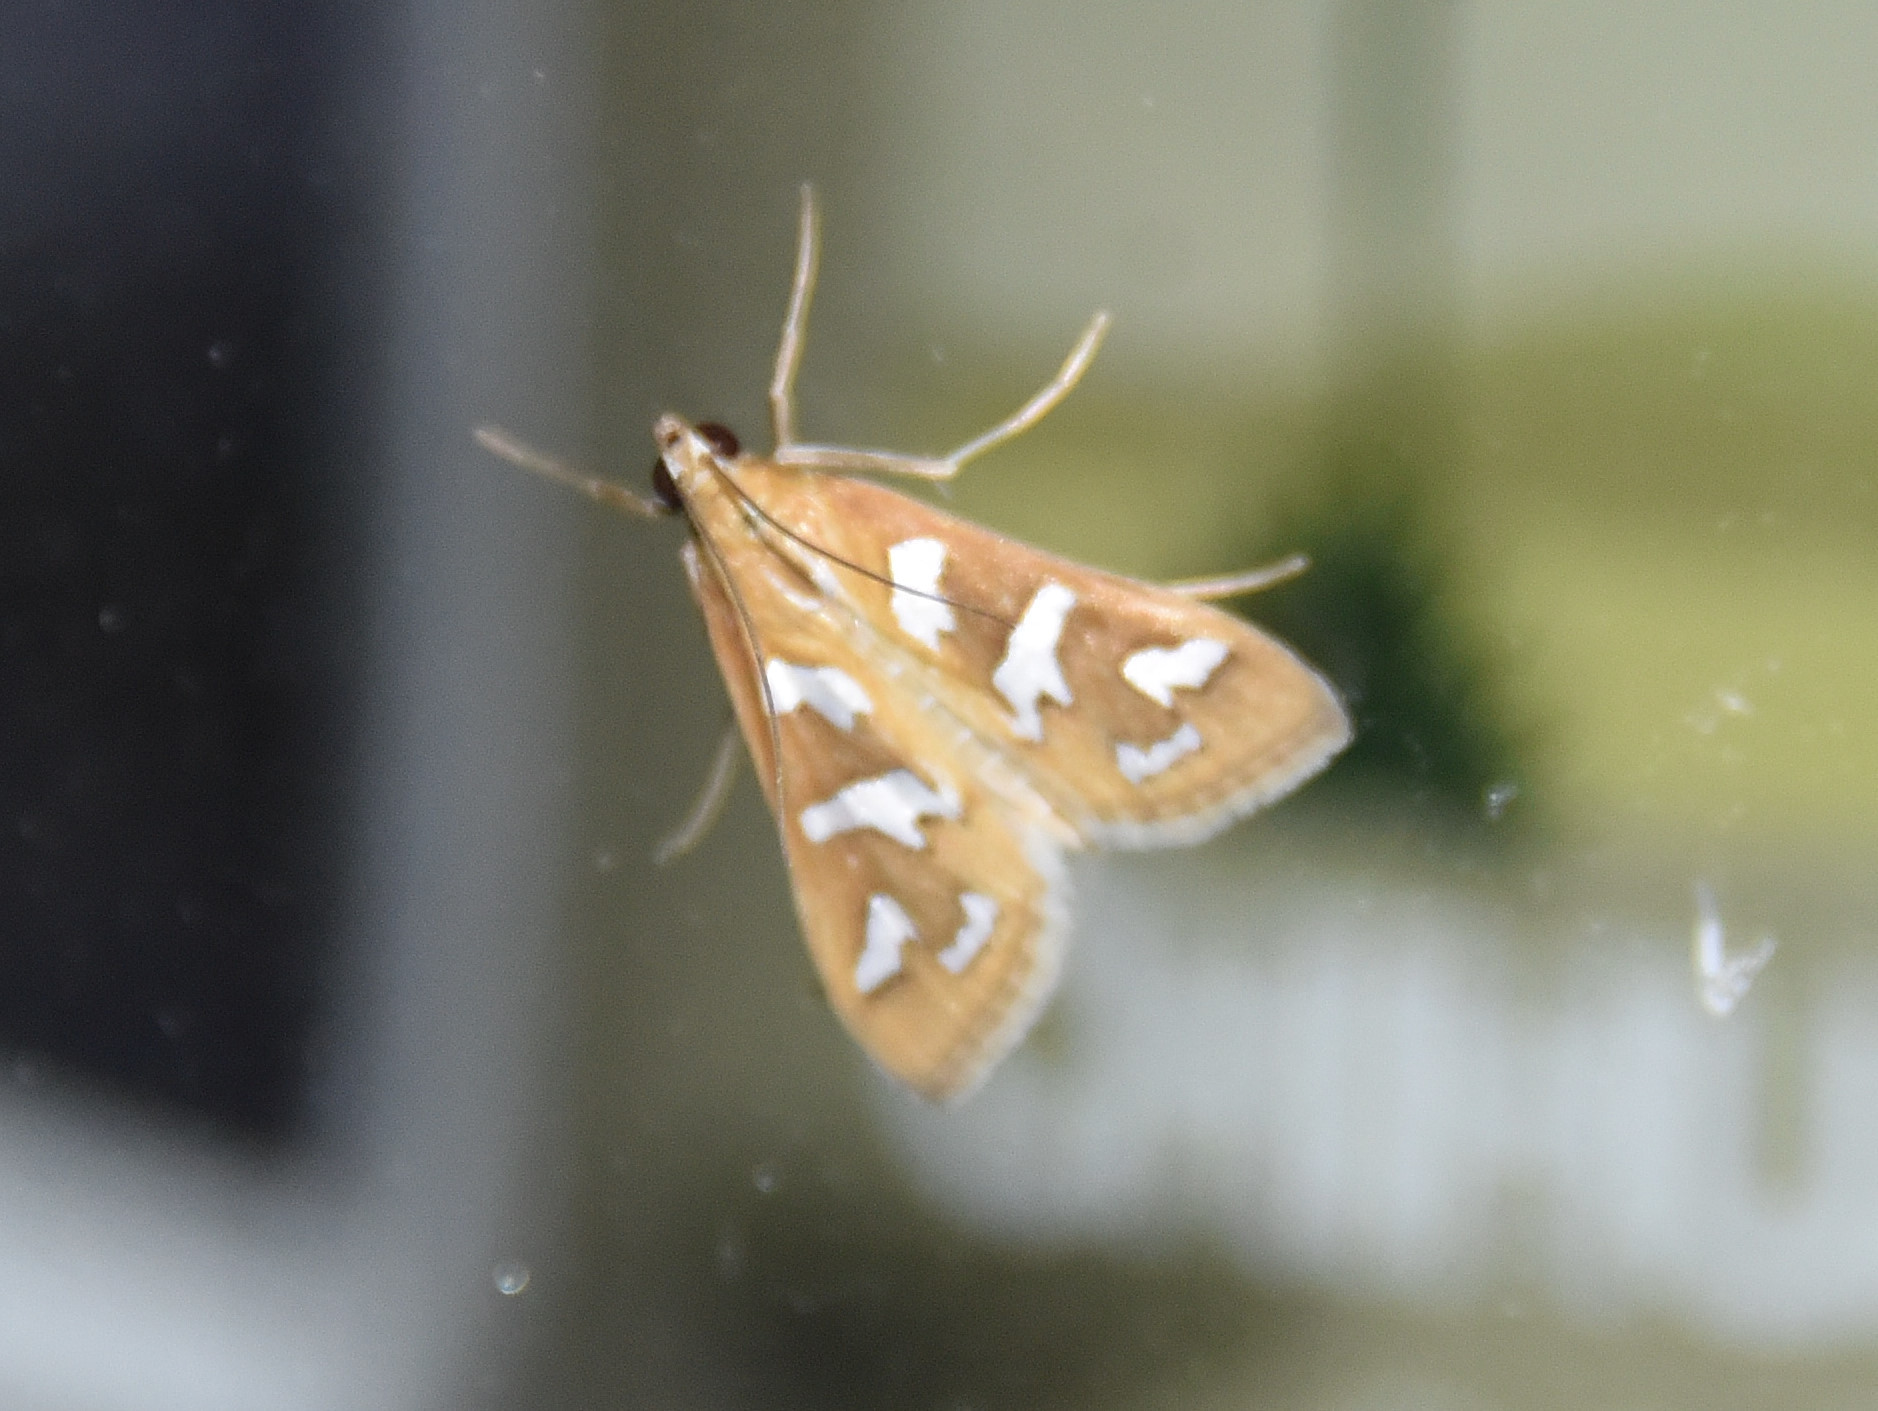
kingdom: Animalia
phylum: Arthropoda
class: Insecta
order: Lepidoptera
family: Crambidae
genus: Diastictis
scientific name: Diastictis fracturalis
